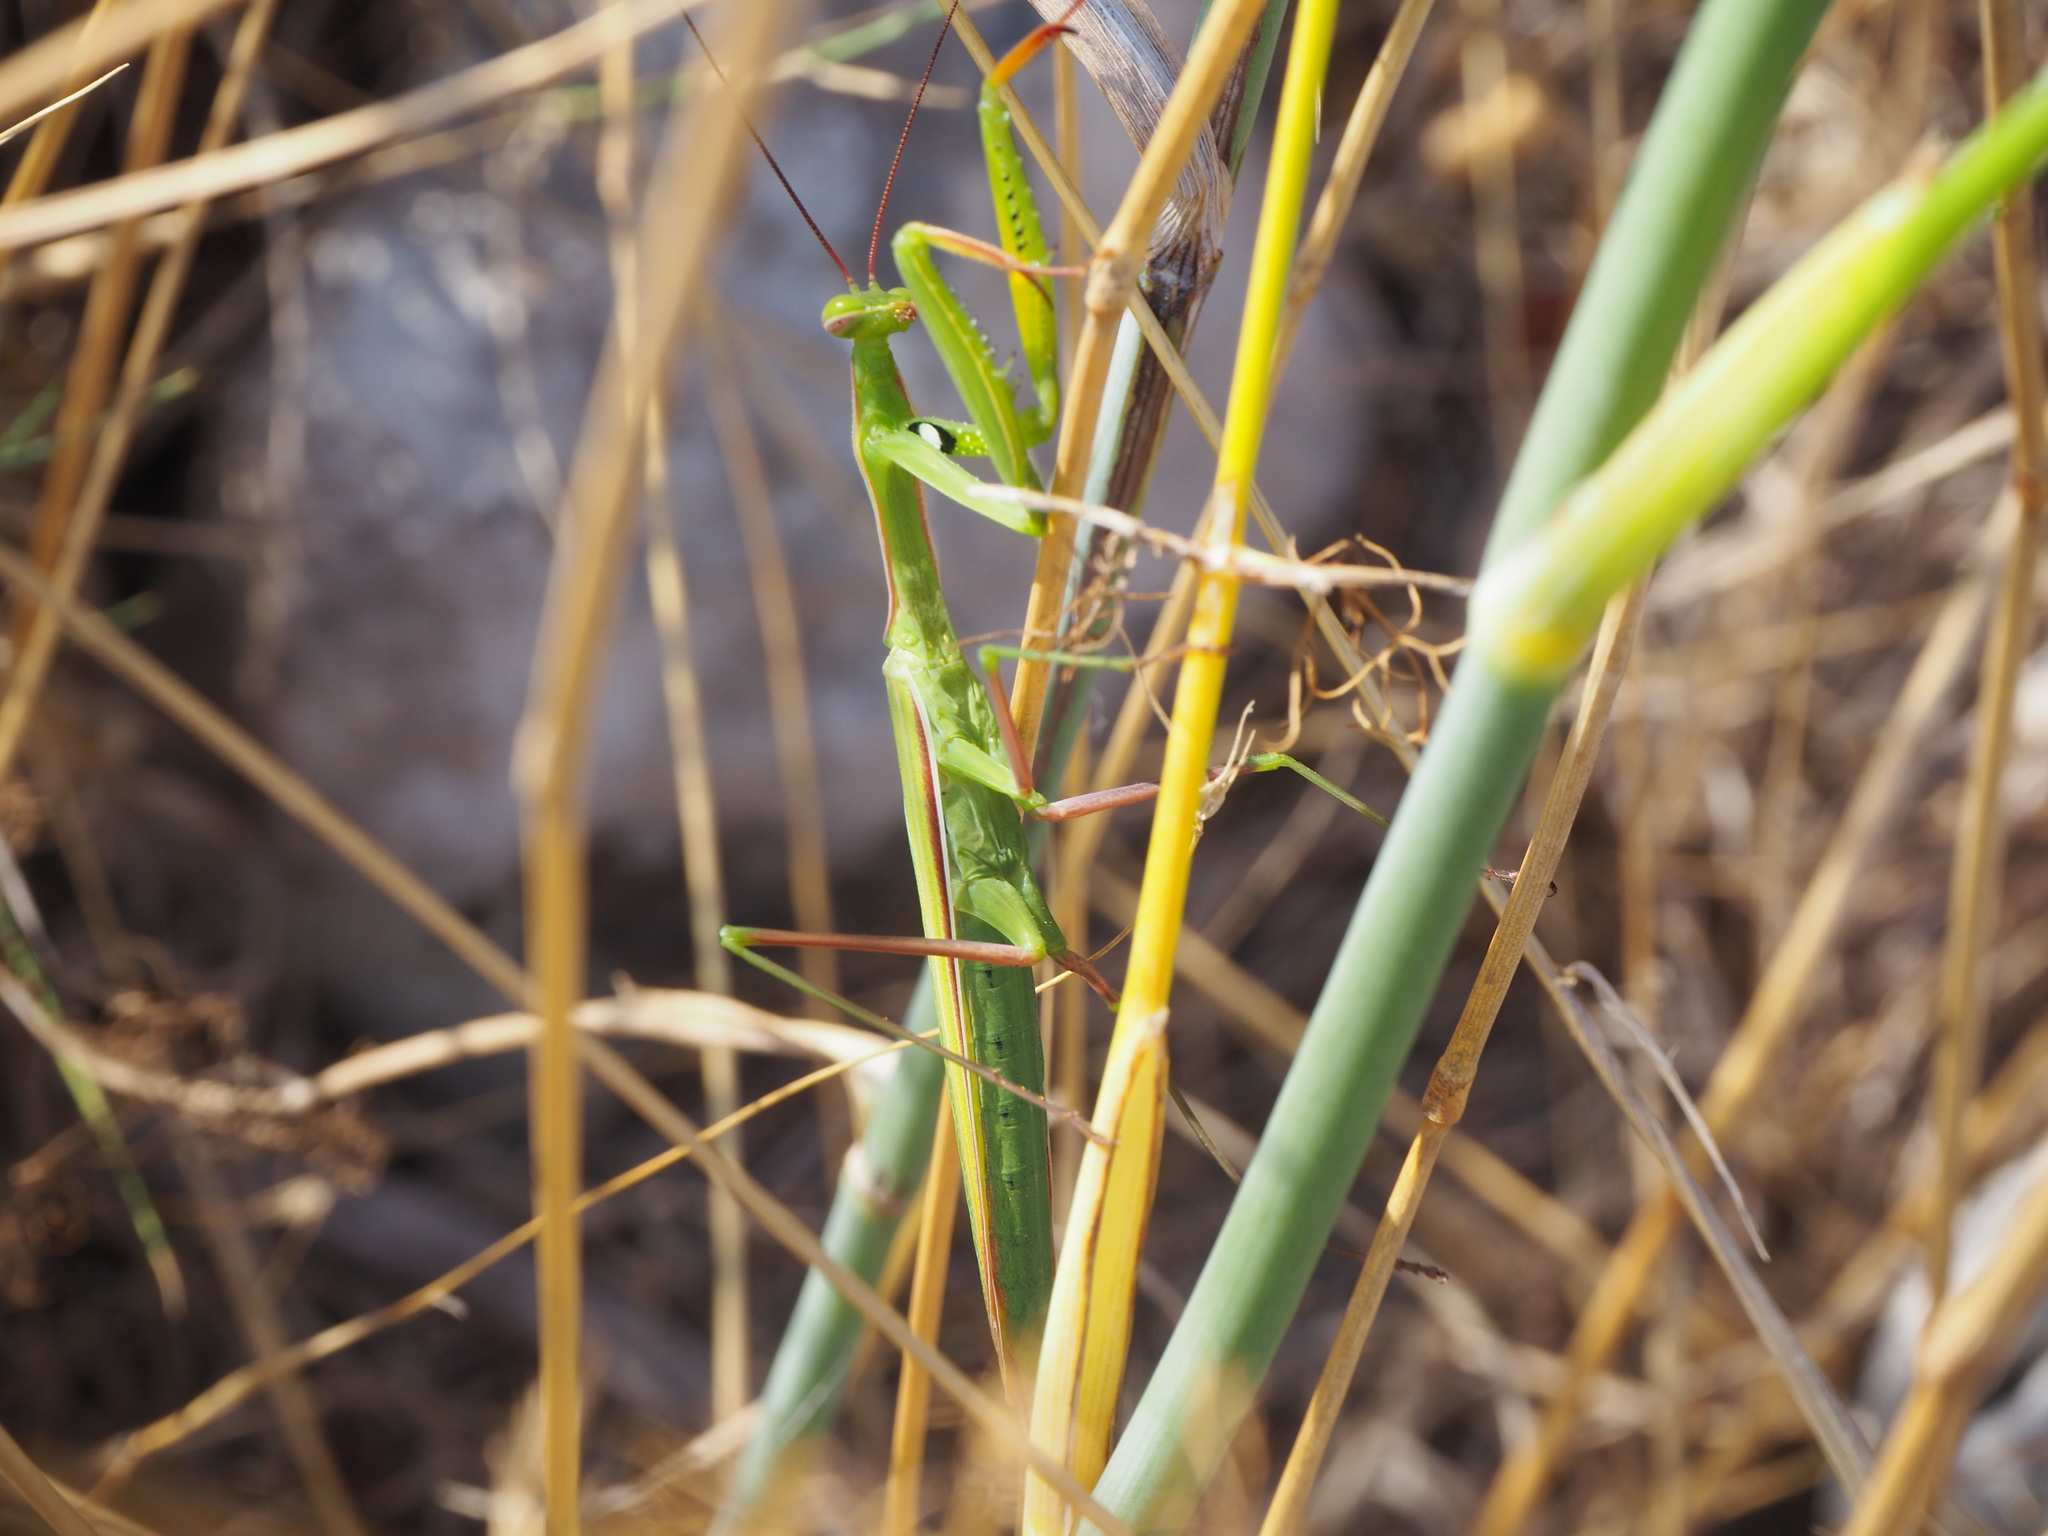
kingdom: Animalia
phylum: Arthropoda
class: Insecta
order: Mantodea
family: Mantidae
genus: Mantis
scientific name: Mantis religiosa
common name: Praying mantis
